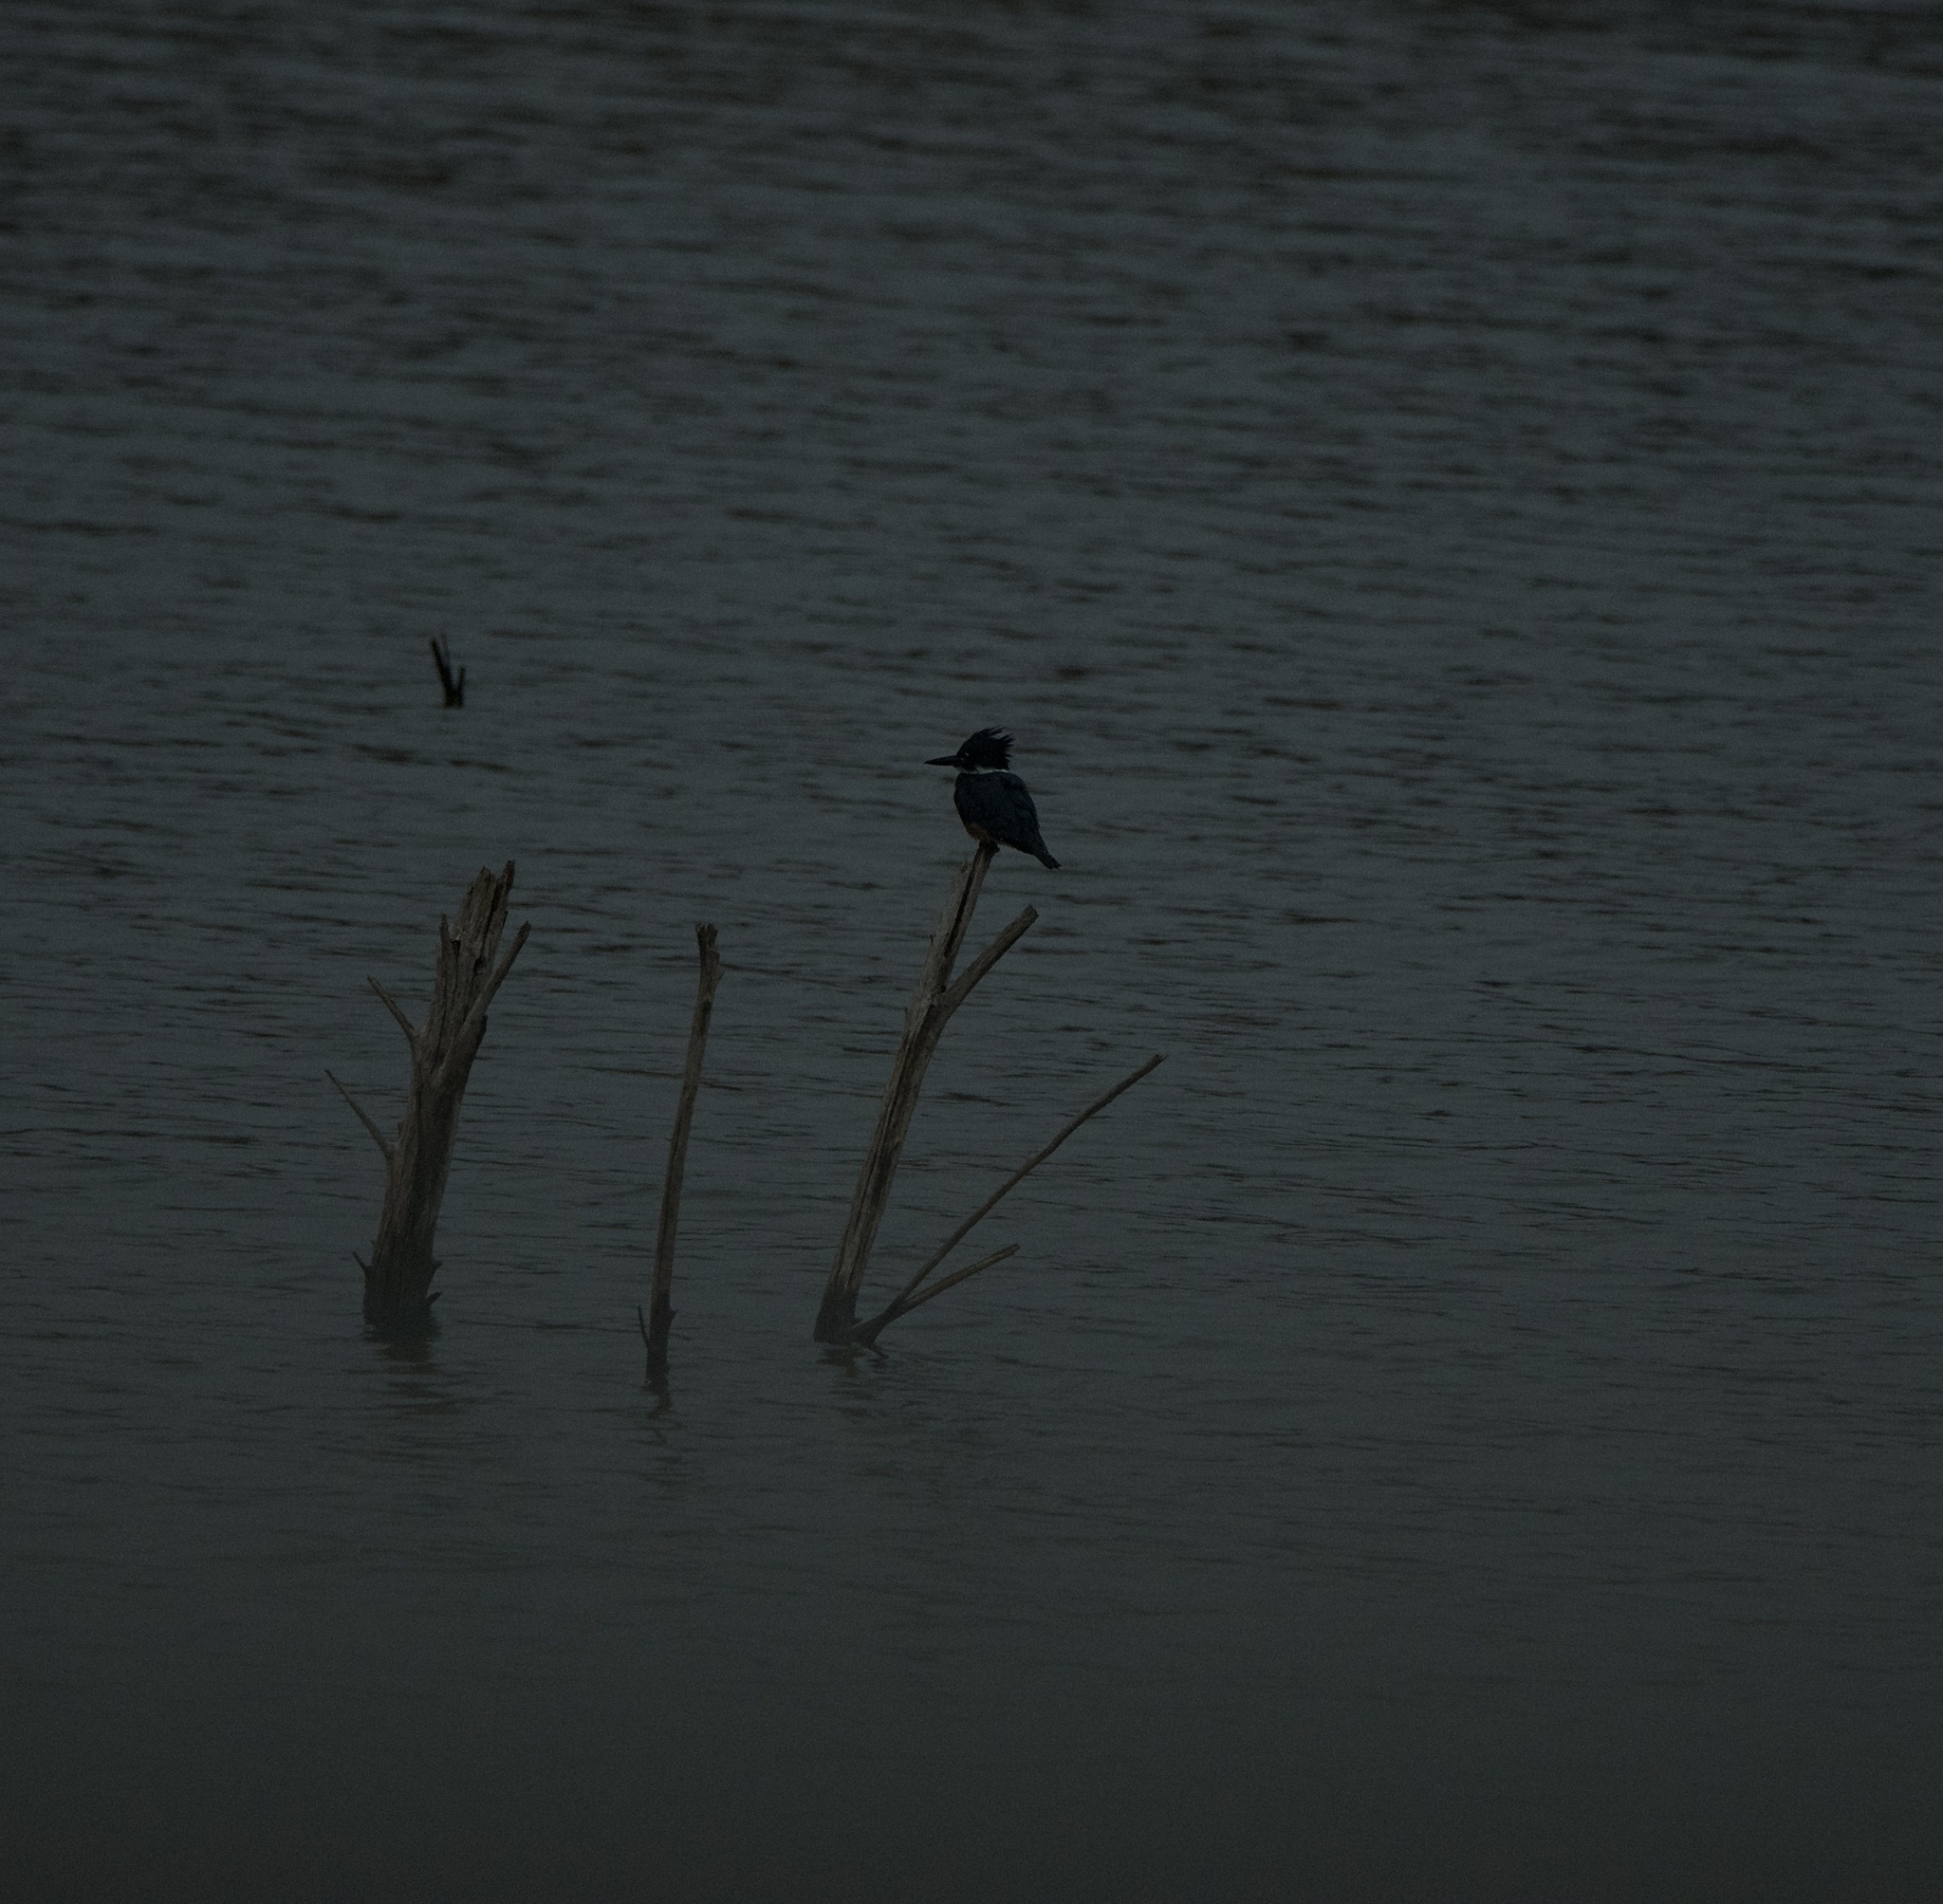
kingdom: Animalia
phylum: Chordata
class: Aves
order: Coraciiformes
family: Alcedinidae
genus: Megaceryle
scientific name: Megaceryle alcyon
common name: Belted kingfisher
